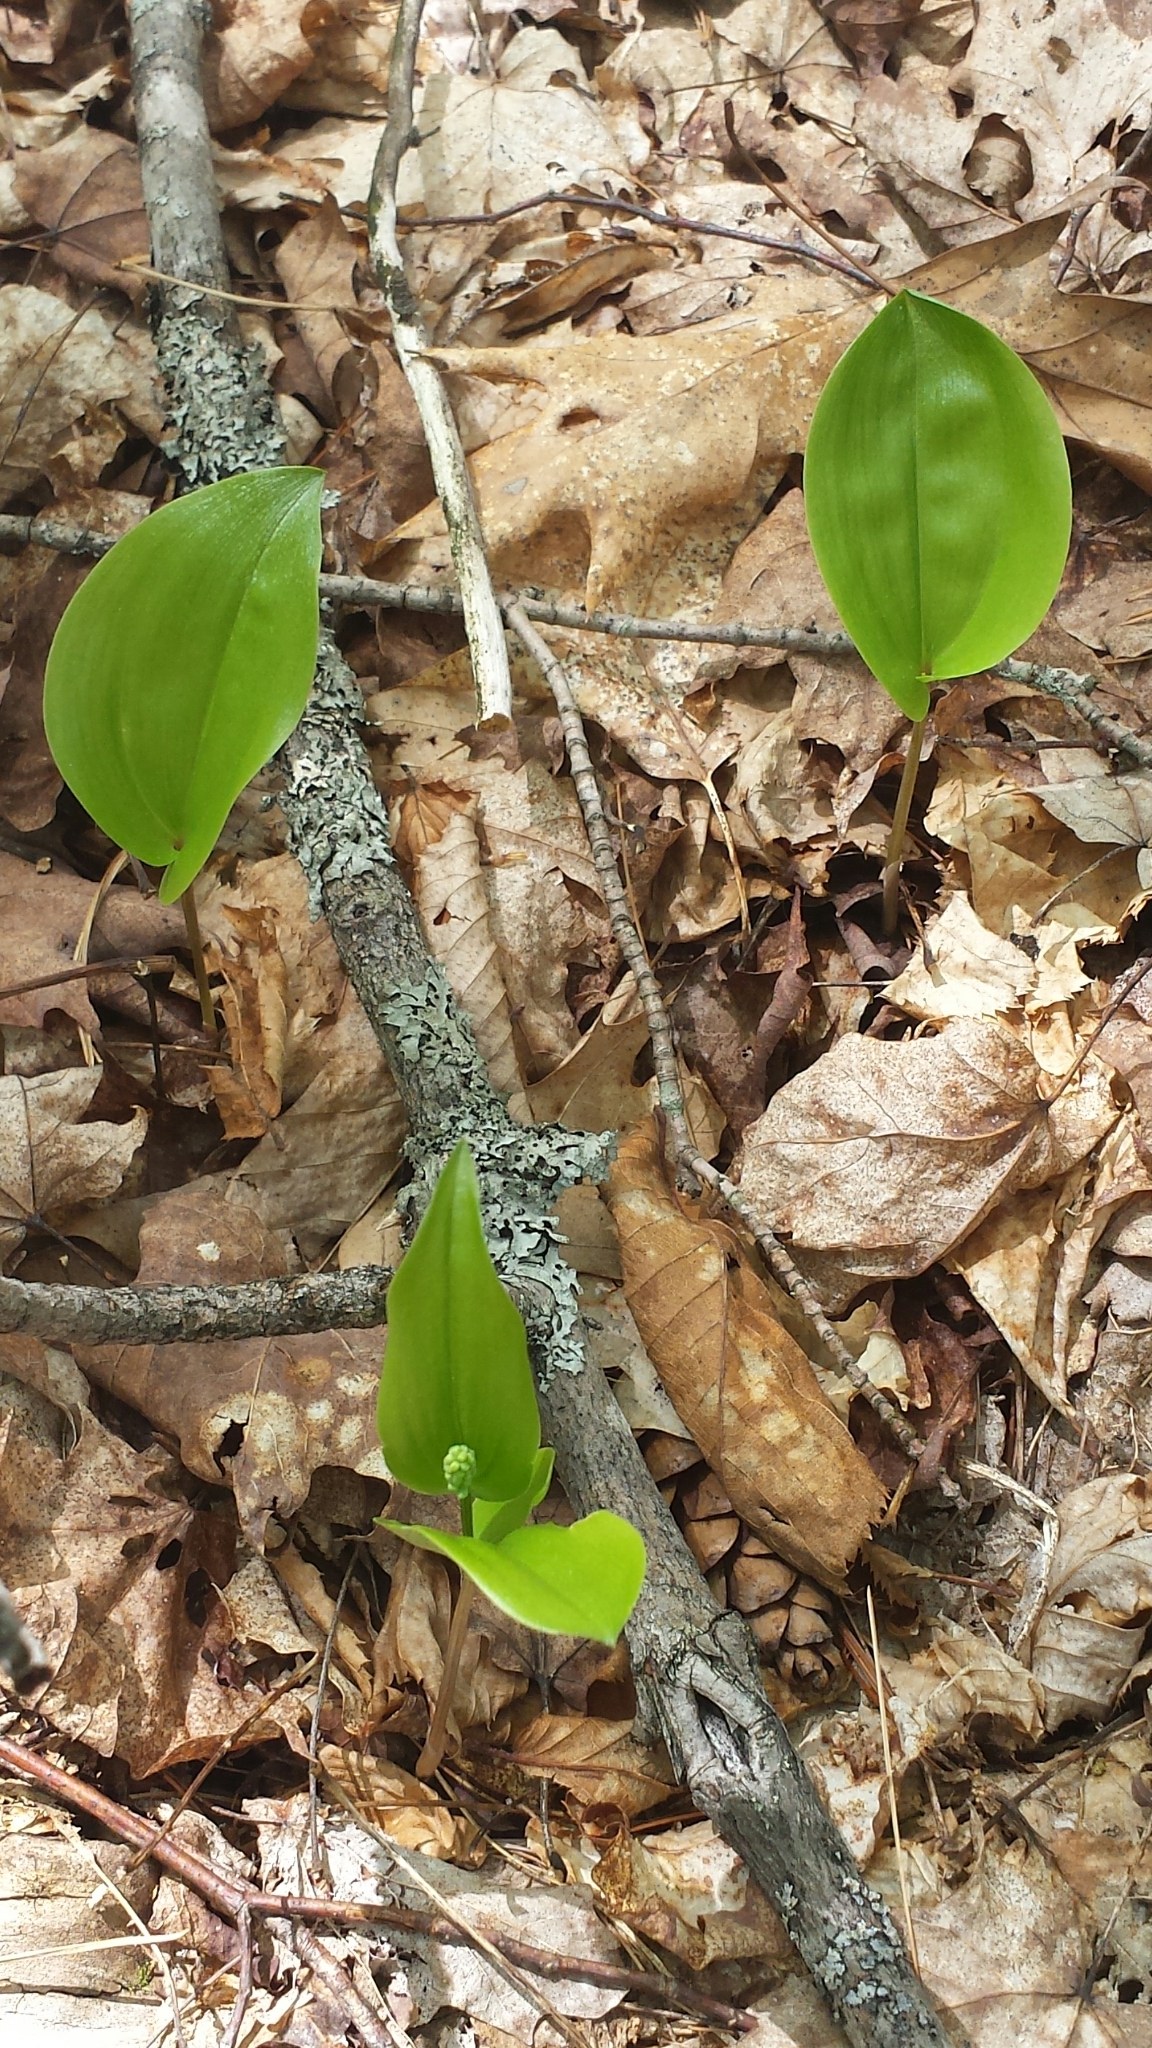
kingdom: Plantae
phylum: Tracheophyta
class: Liliopsida
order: Asparagales
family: Asparagaceae
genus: Maianthemum
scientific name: Maianthemum canadense
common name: False lily-of-the-valley
